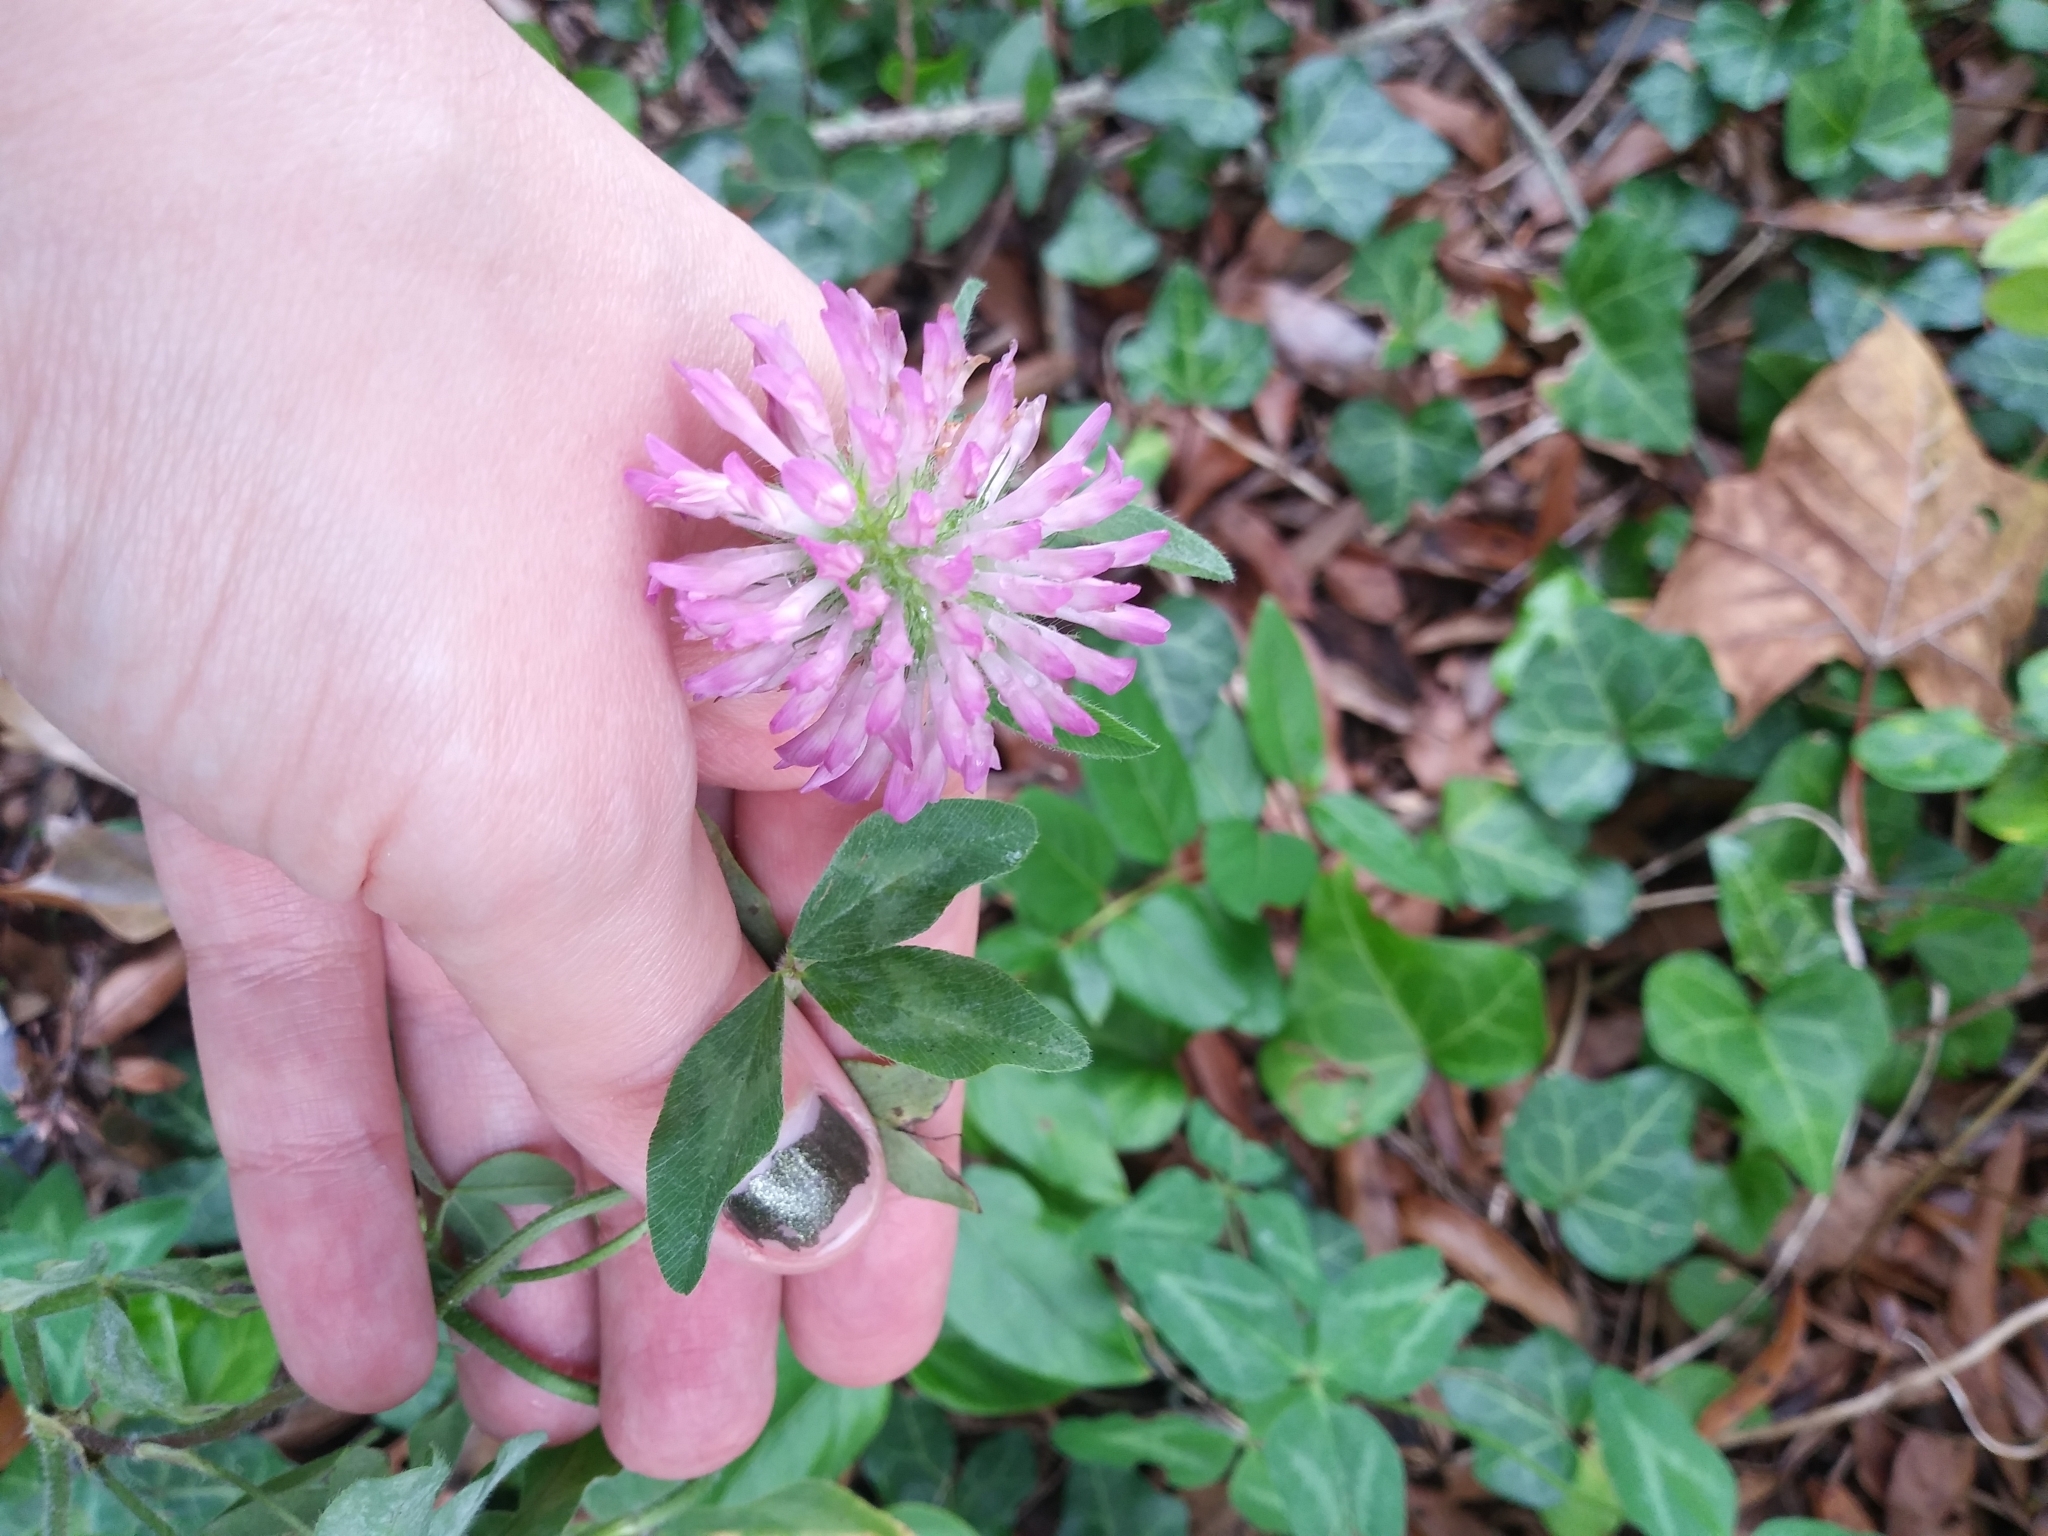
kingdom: Plantae
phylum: Tracheophyta
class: Magnoliopsida
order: Fabales
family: Fabaceae
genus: Trifolium
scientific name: Trifolium pratense
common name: Red clover
